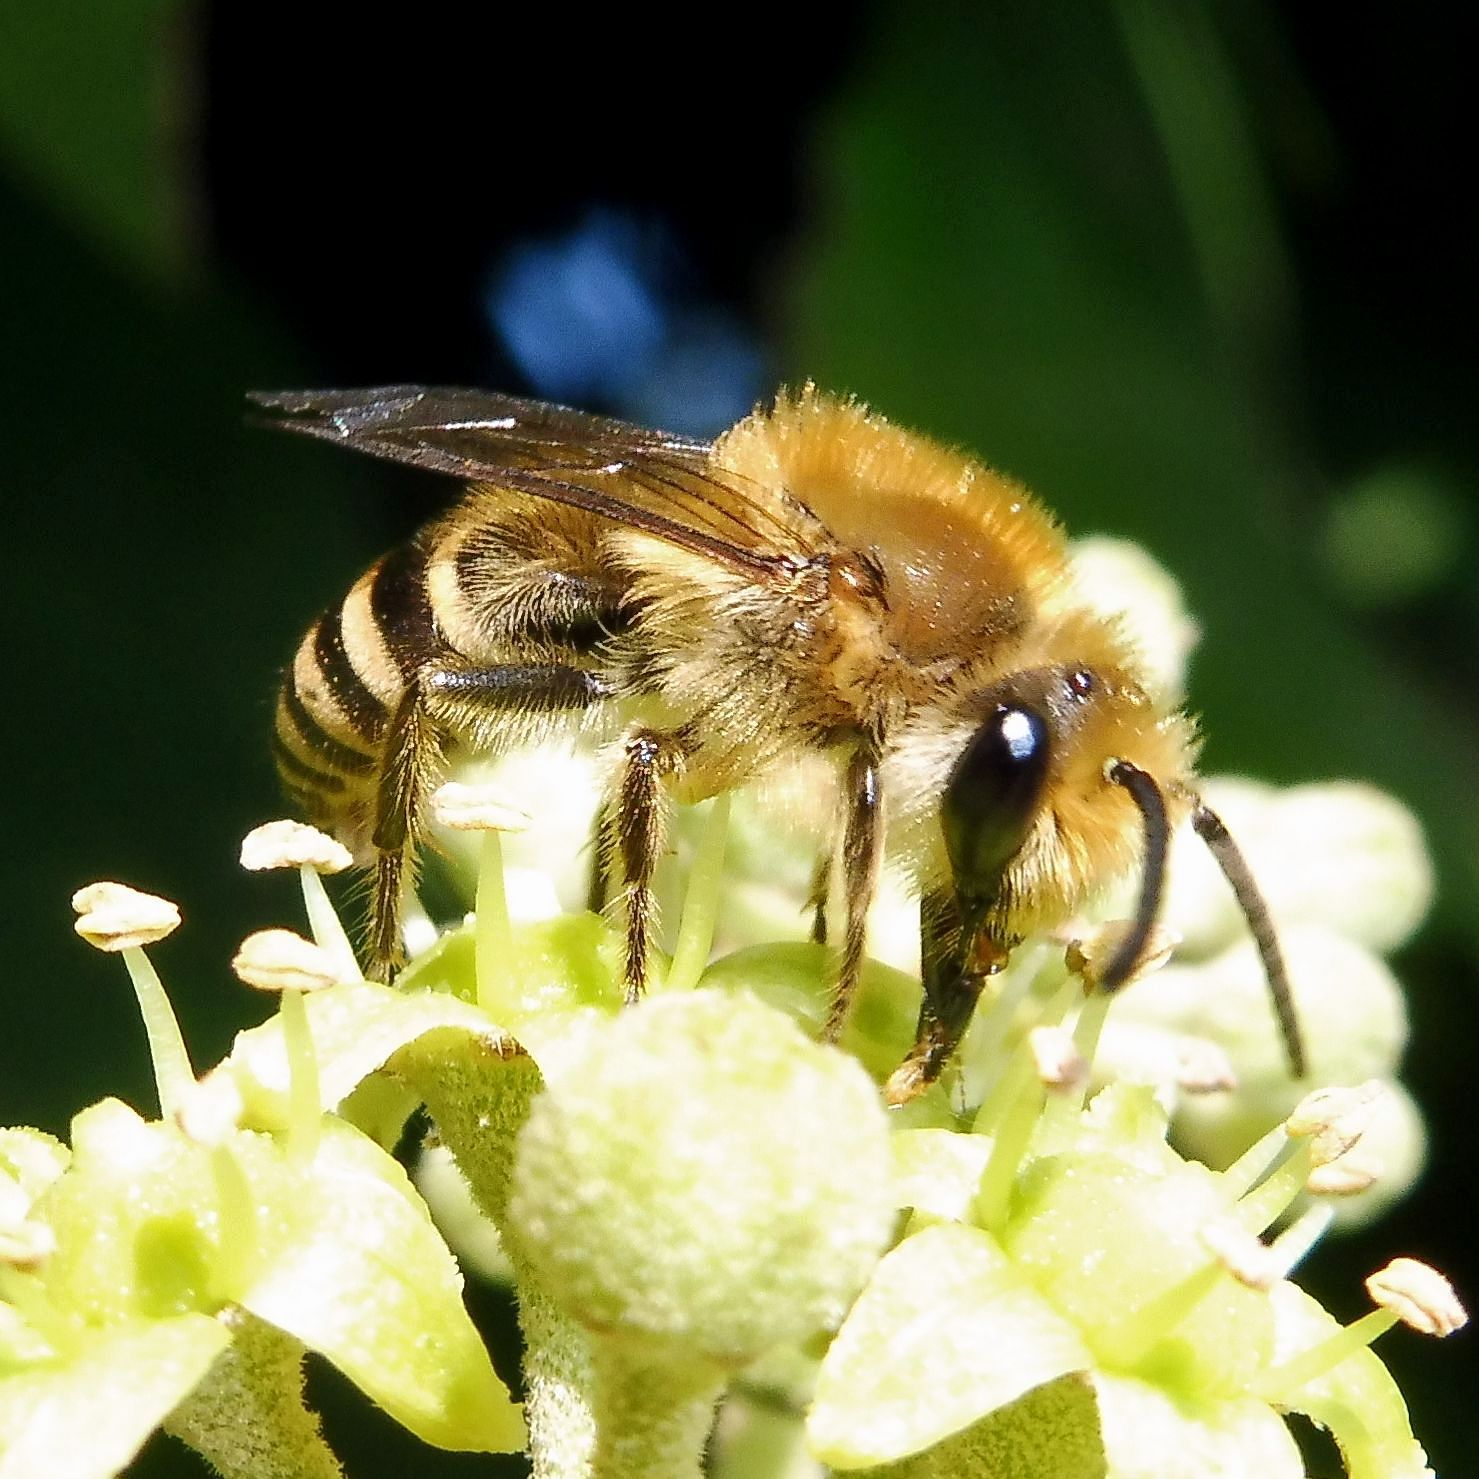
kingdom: Animalia
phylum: Arthropoda
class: Insecta
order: Hymenoptera
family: Colletidae
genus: Colletes
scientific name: Colletes hederae
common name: Ivy bee
